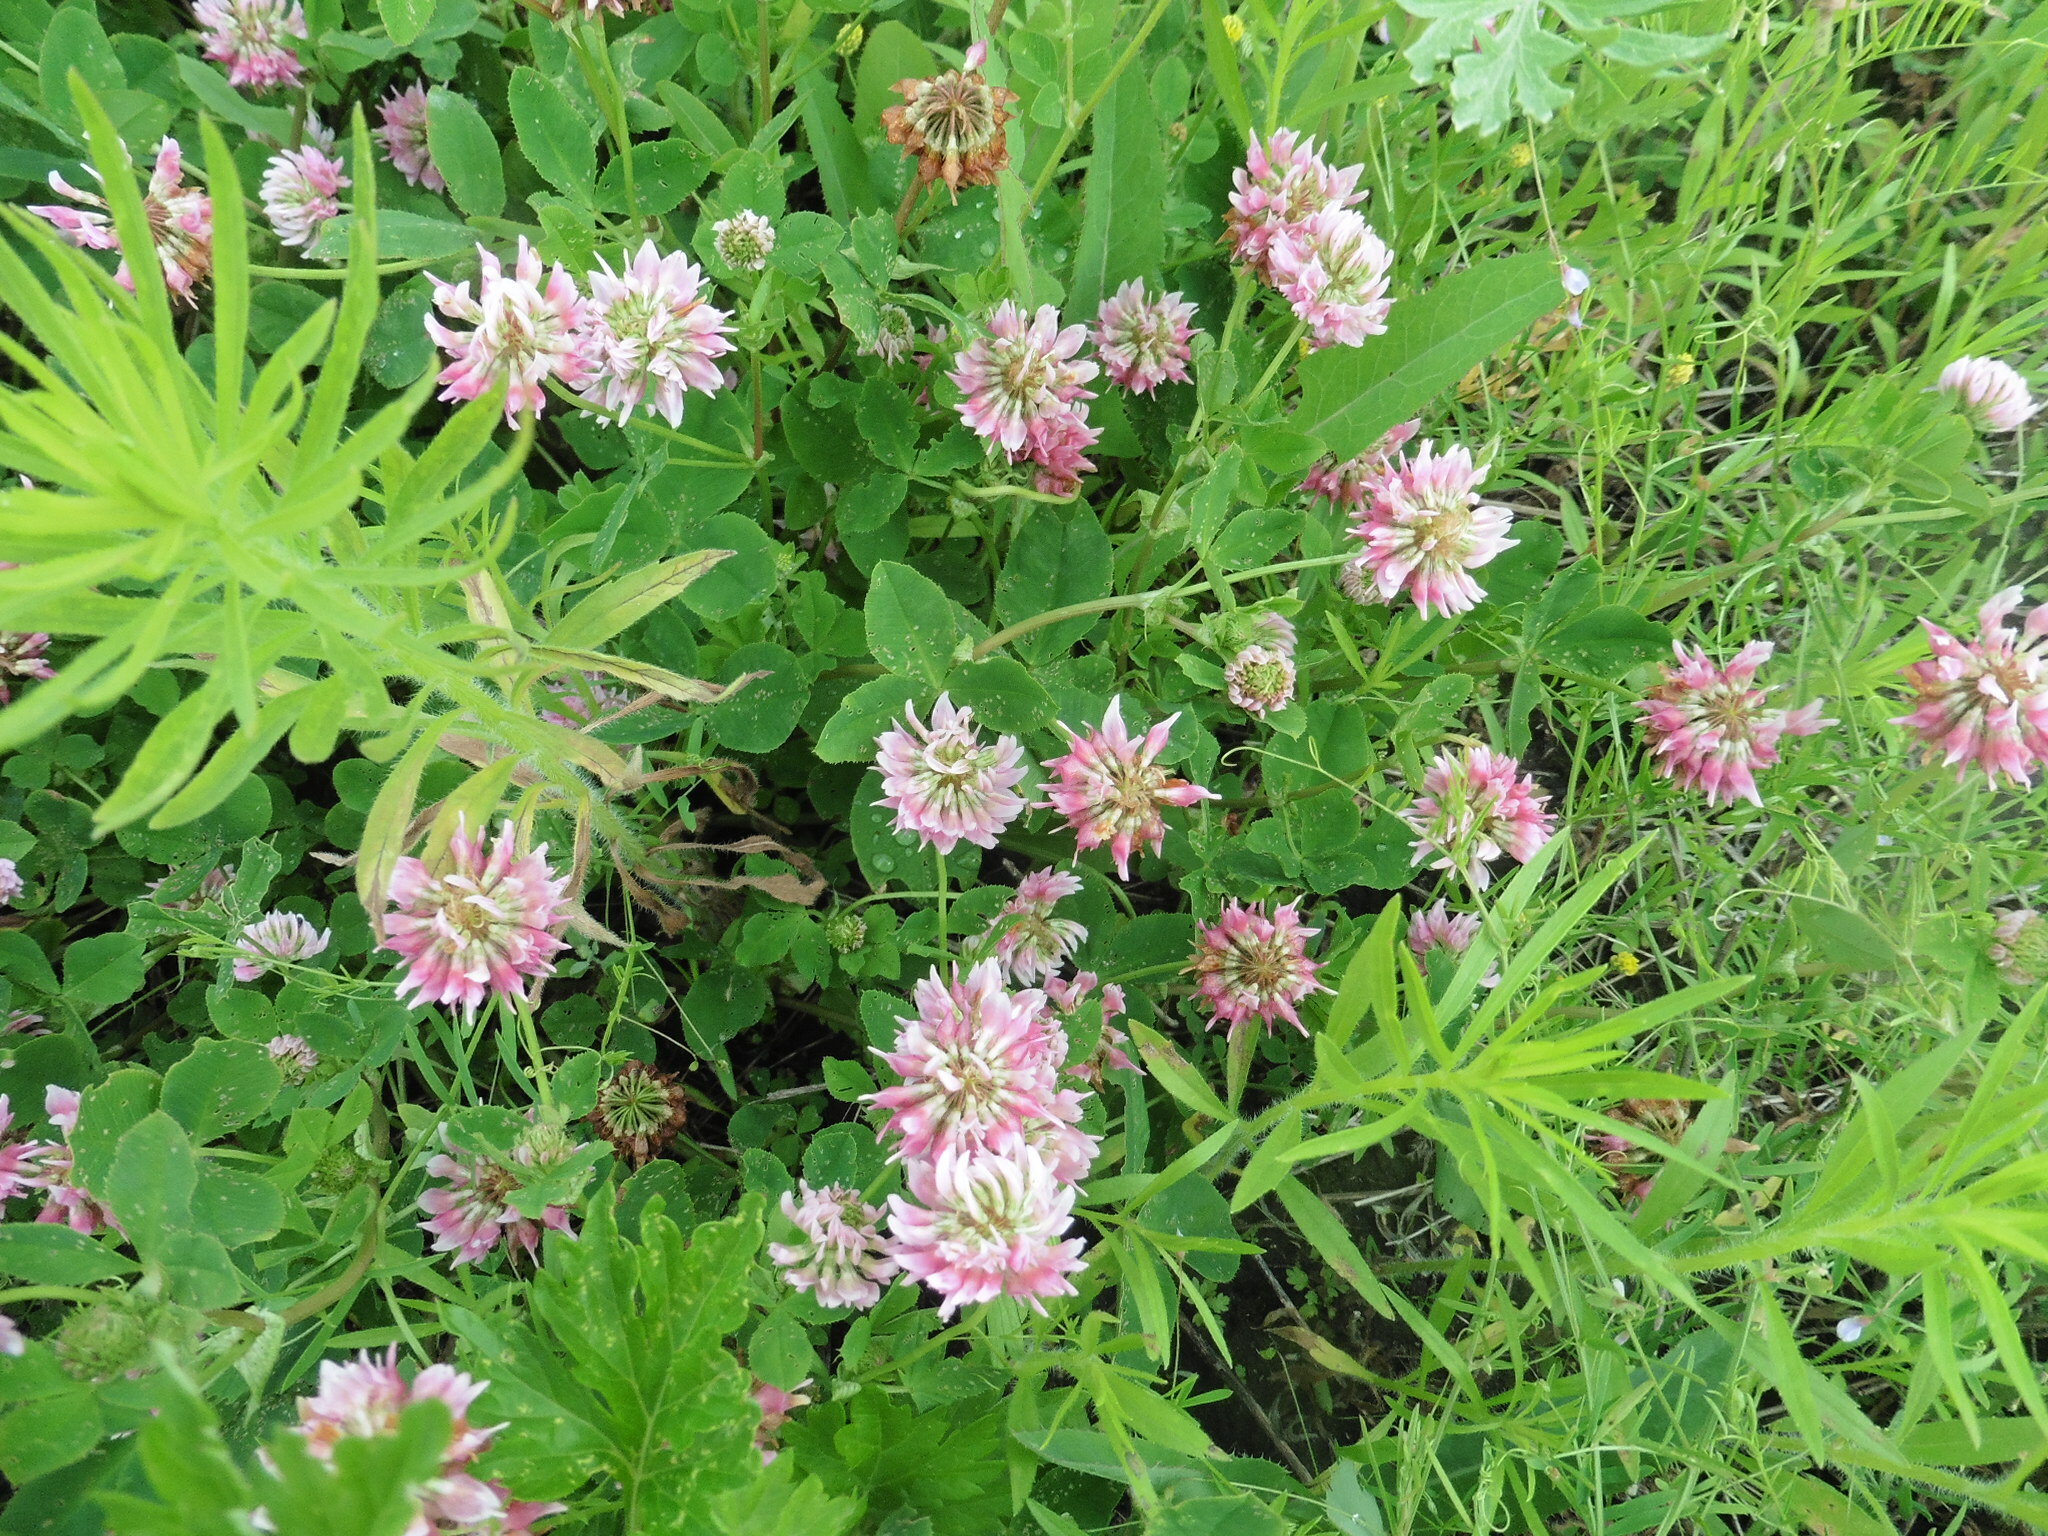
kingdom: Plantae
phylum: Tracheophyta
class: Magnoliopsida
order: Fabales
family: Fabaceae
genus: Trifolium
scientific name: Trifolium hybridum
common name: Alsike clover
